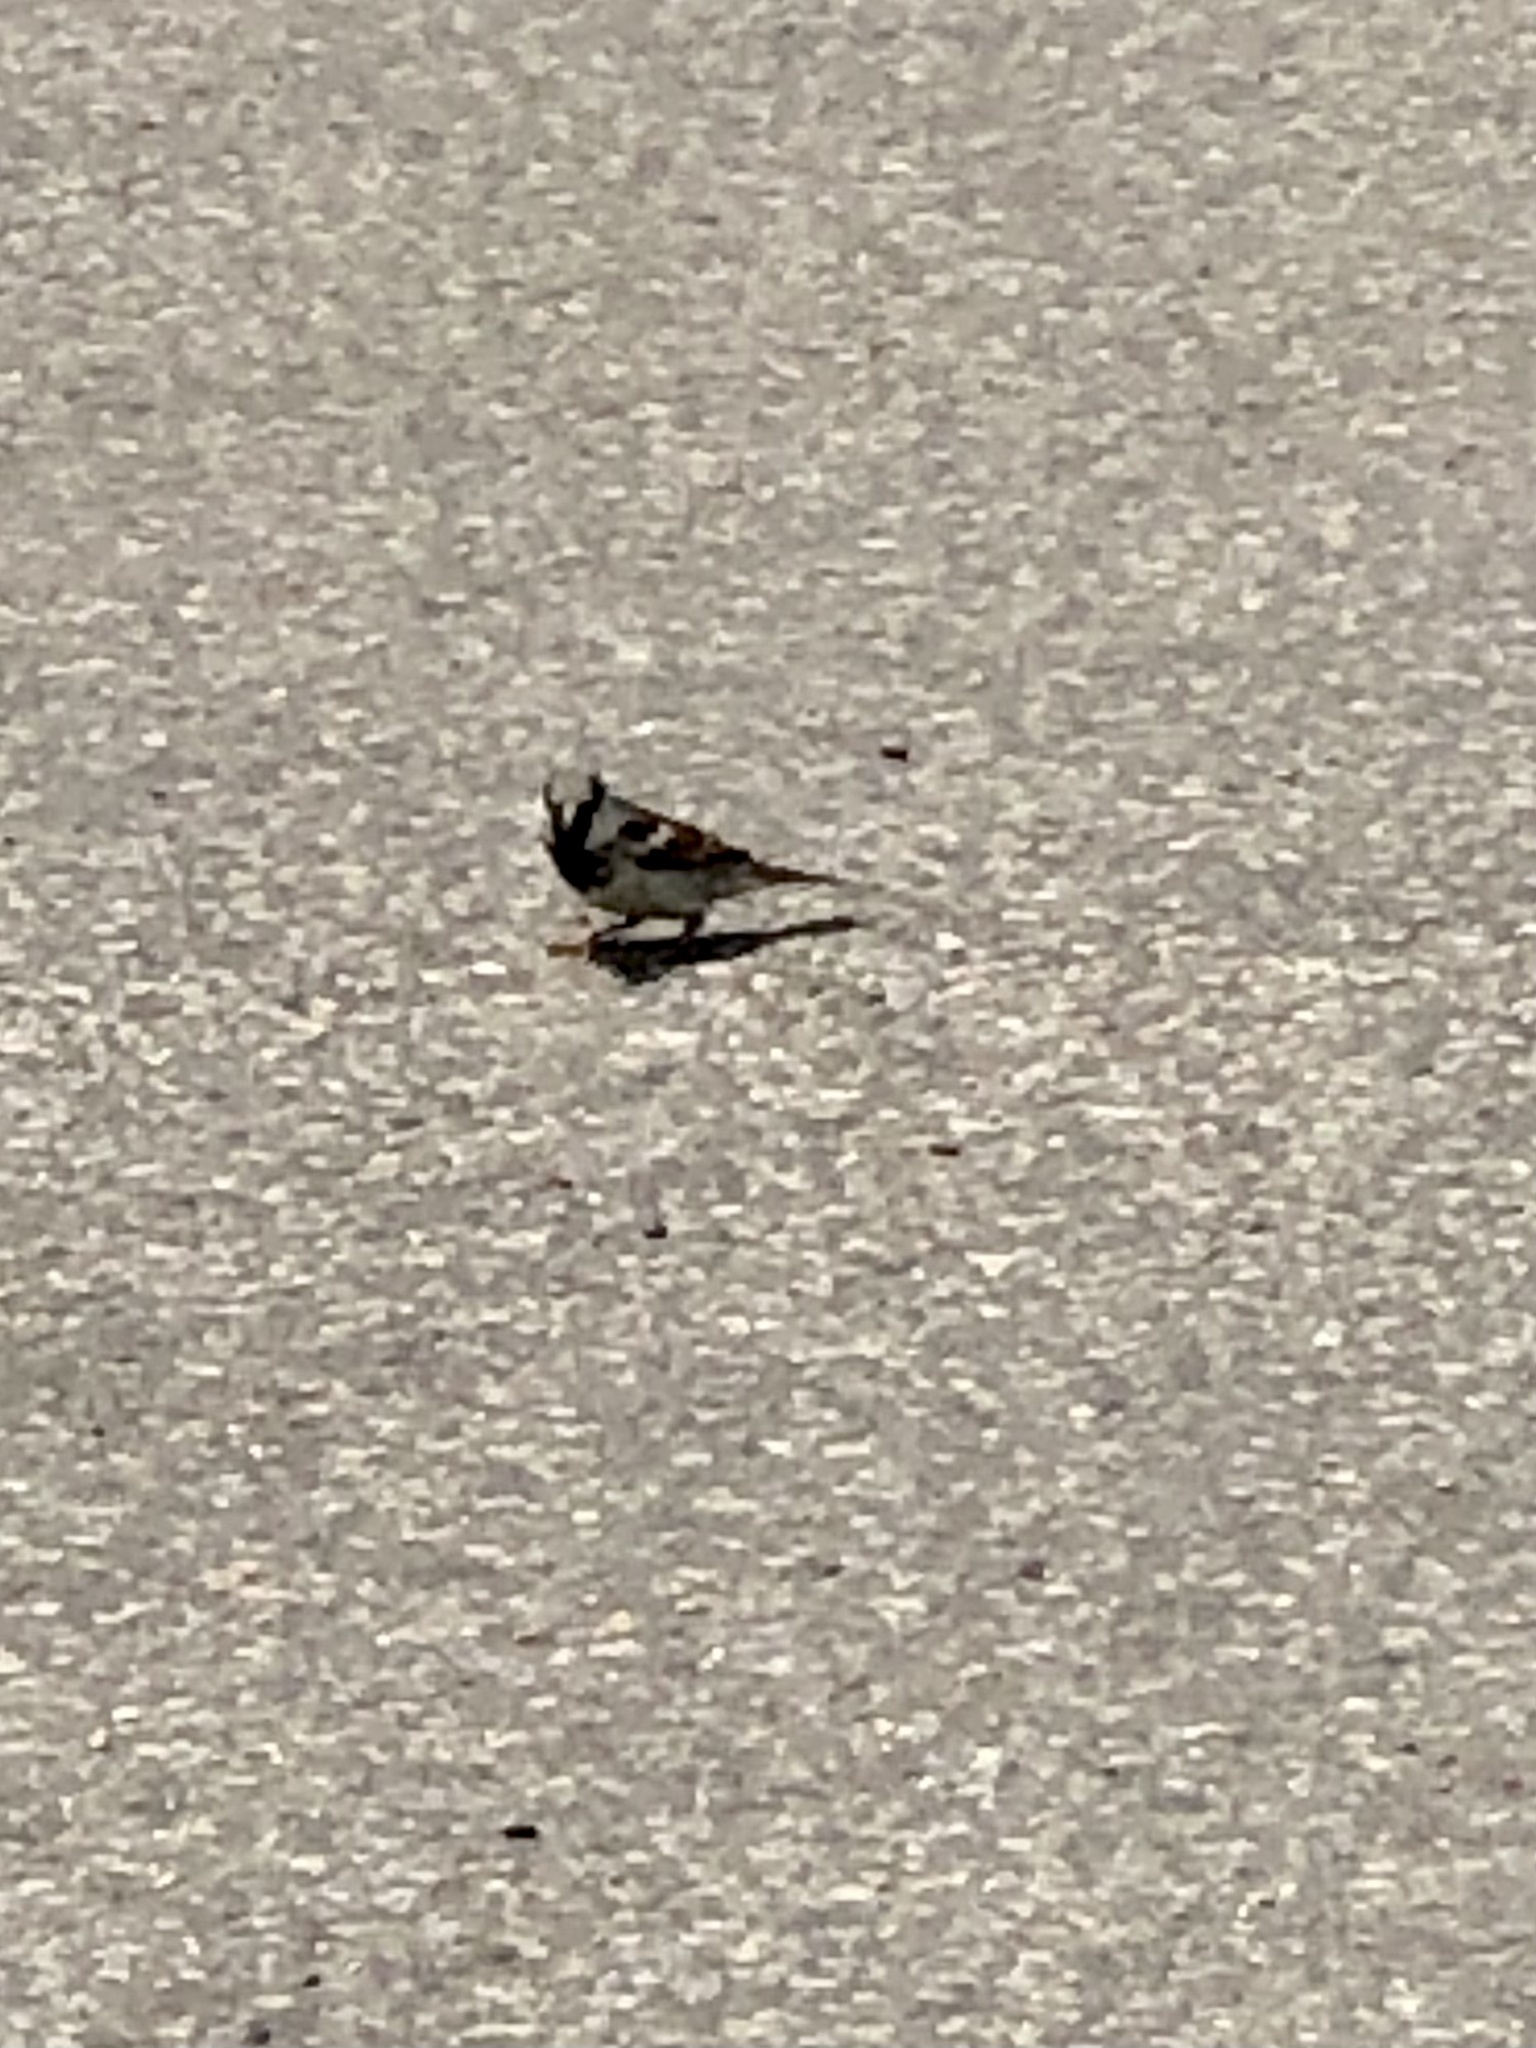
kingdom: Animalia
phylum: Chordata
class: Aves
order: Passeriformes
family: Passeridae
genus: Passer
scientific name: Passer domesticus
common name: House sparrow
